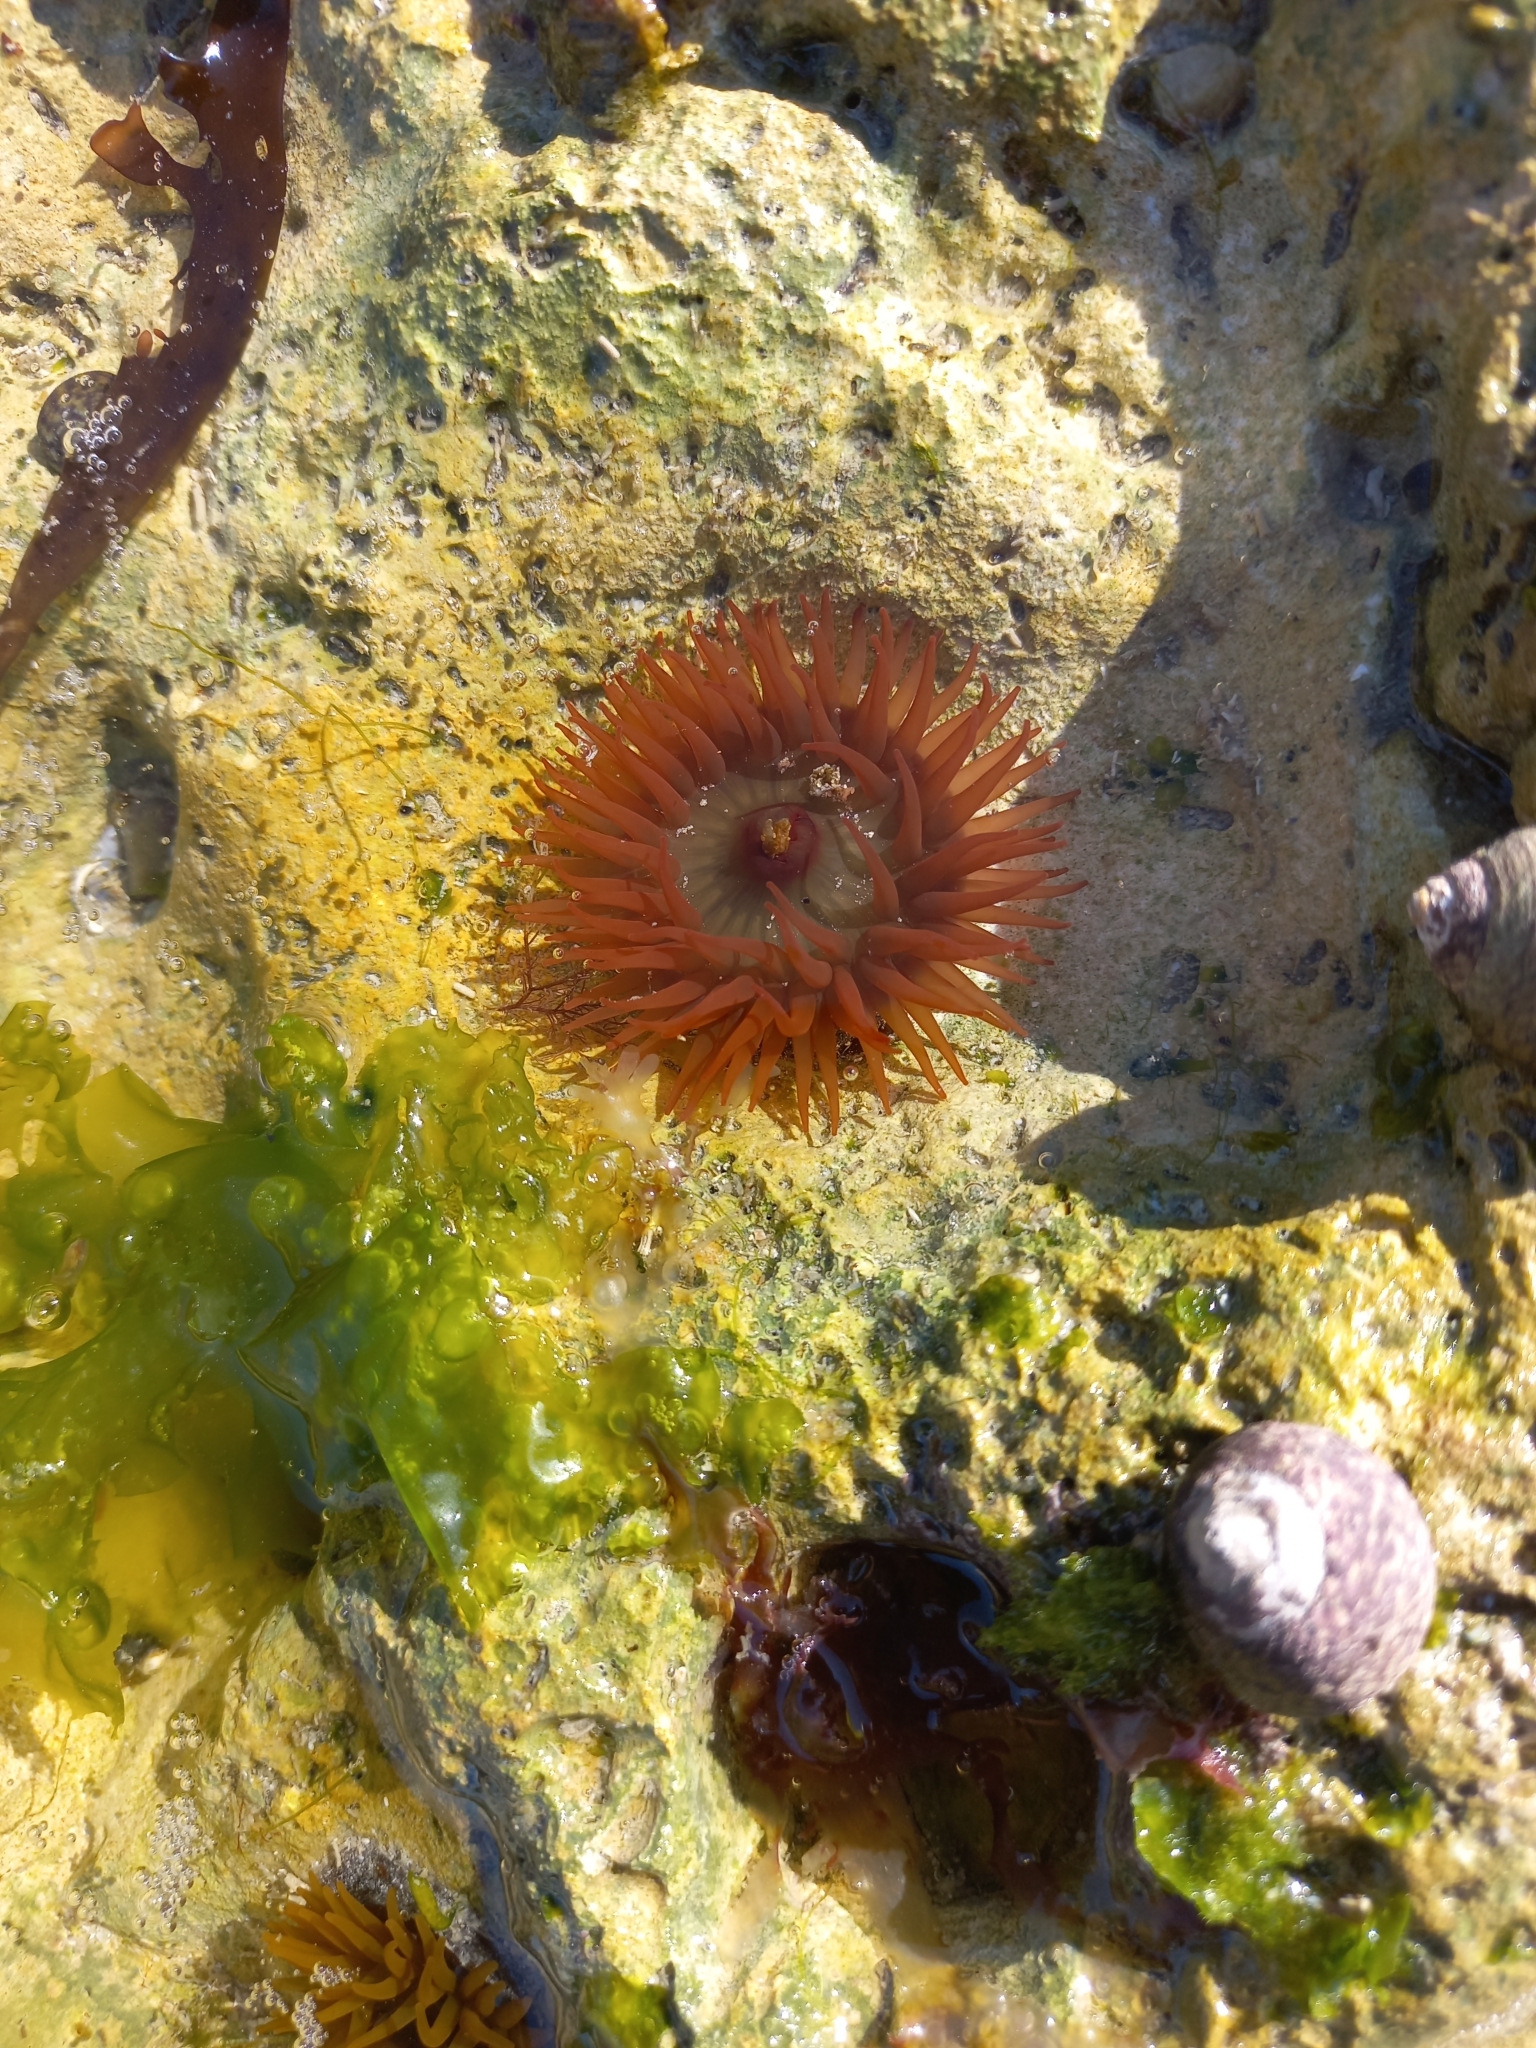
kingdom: Animalia
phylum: Cnidaria
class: Anthozoa
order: Actiniaria
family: Actiniidae
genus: Actinia
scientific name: Actinia equina
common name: Beadlet anemone
